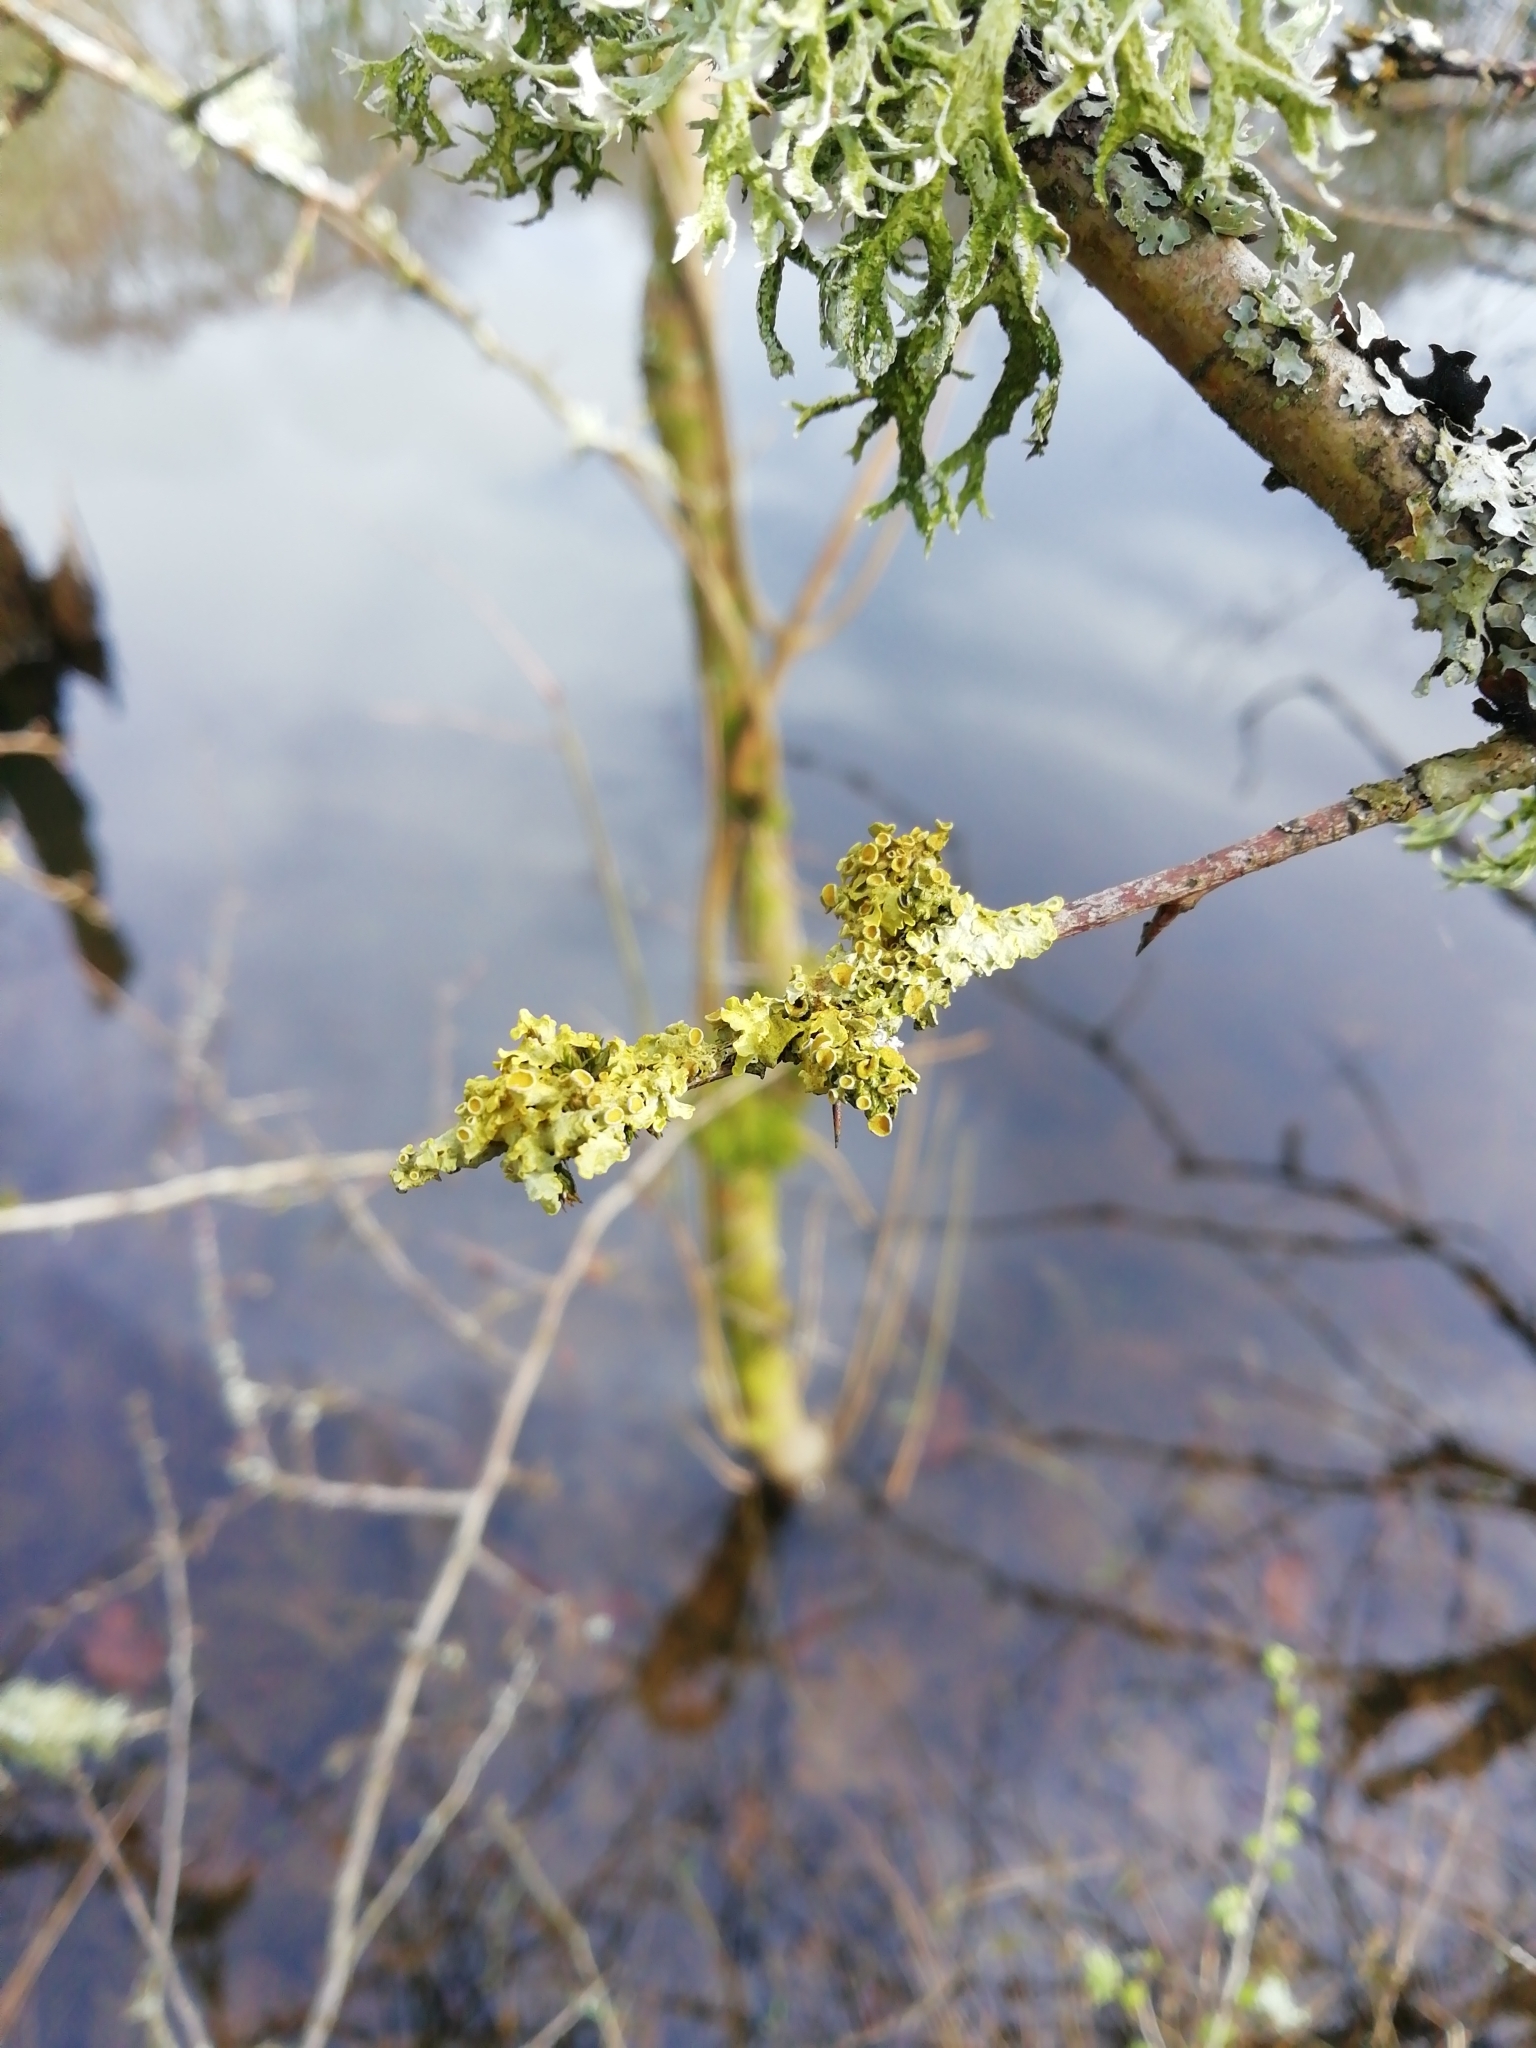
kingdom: Fungi
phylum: Ascomycota
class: Lecanoromycetes
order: Teloschistales
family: Teloschistaceae
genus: Xanthoria
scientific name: Xanthoria parietina
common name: Common orange lichen
